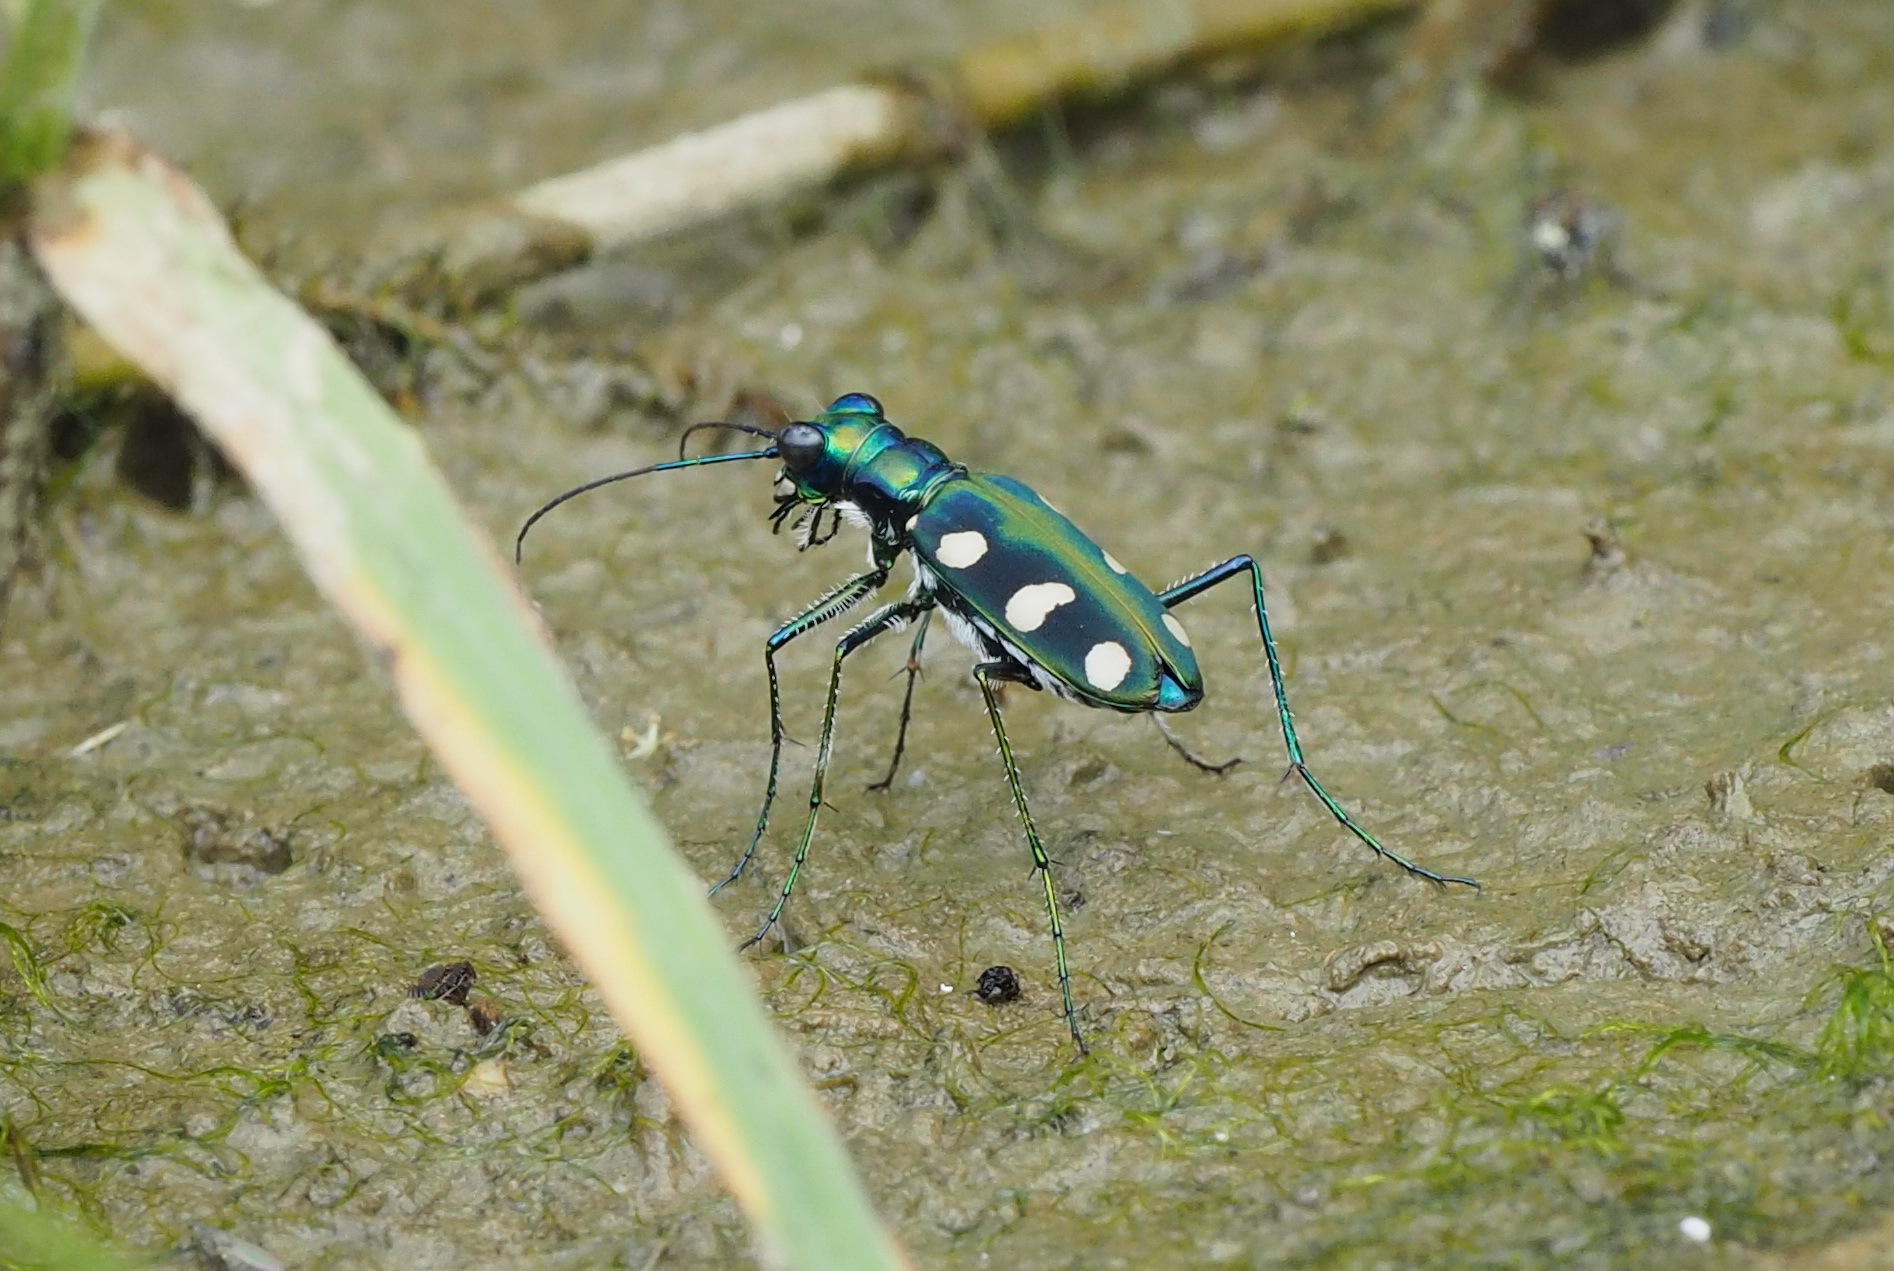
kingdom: Animalia
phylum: Arthropoda
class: Insecta
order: Coleoptera
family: Carabidae
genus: Cicindela
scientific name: Cicindela batesi
